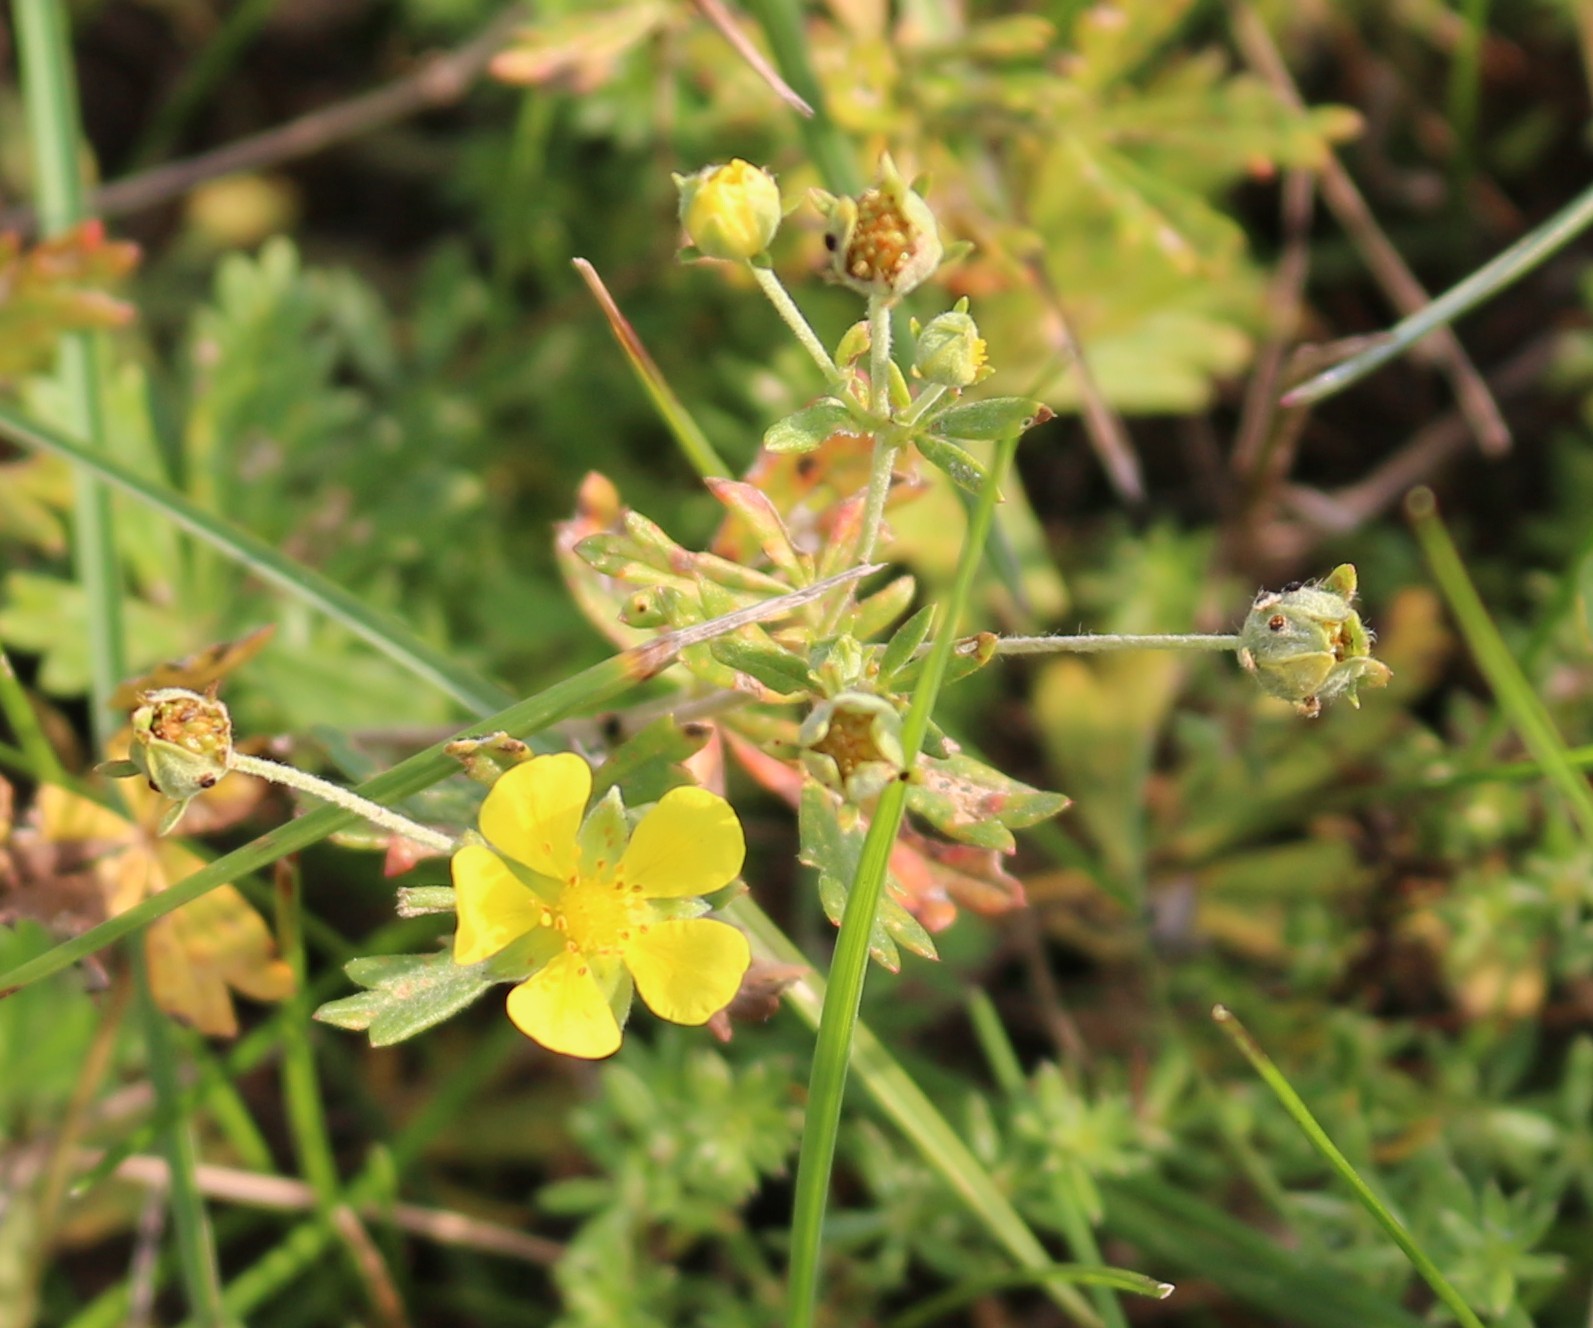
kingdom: Plantae
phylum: Tracheophyta
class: Magnoliopsida
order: Rosales
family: Rosaceae
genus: Potentilla
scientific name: Potentilla argentea
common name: Hoary cinquefoil
